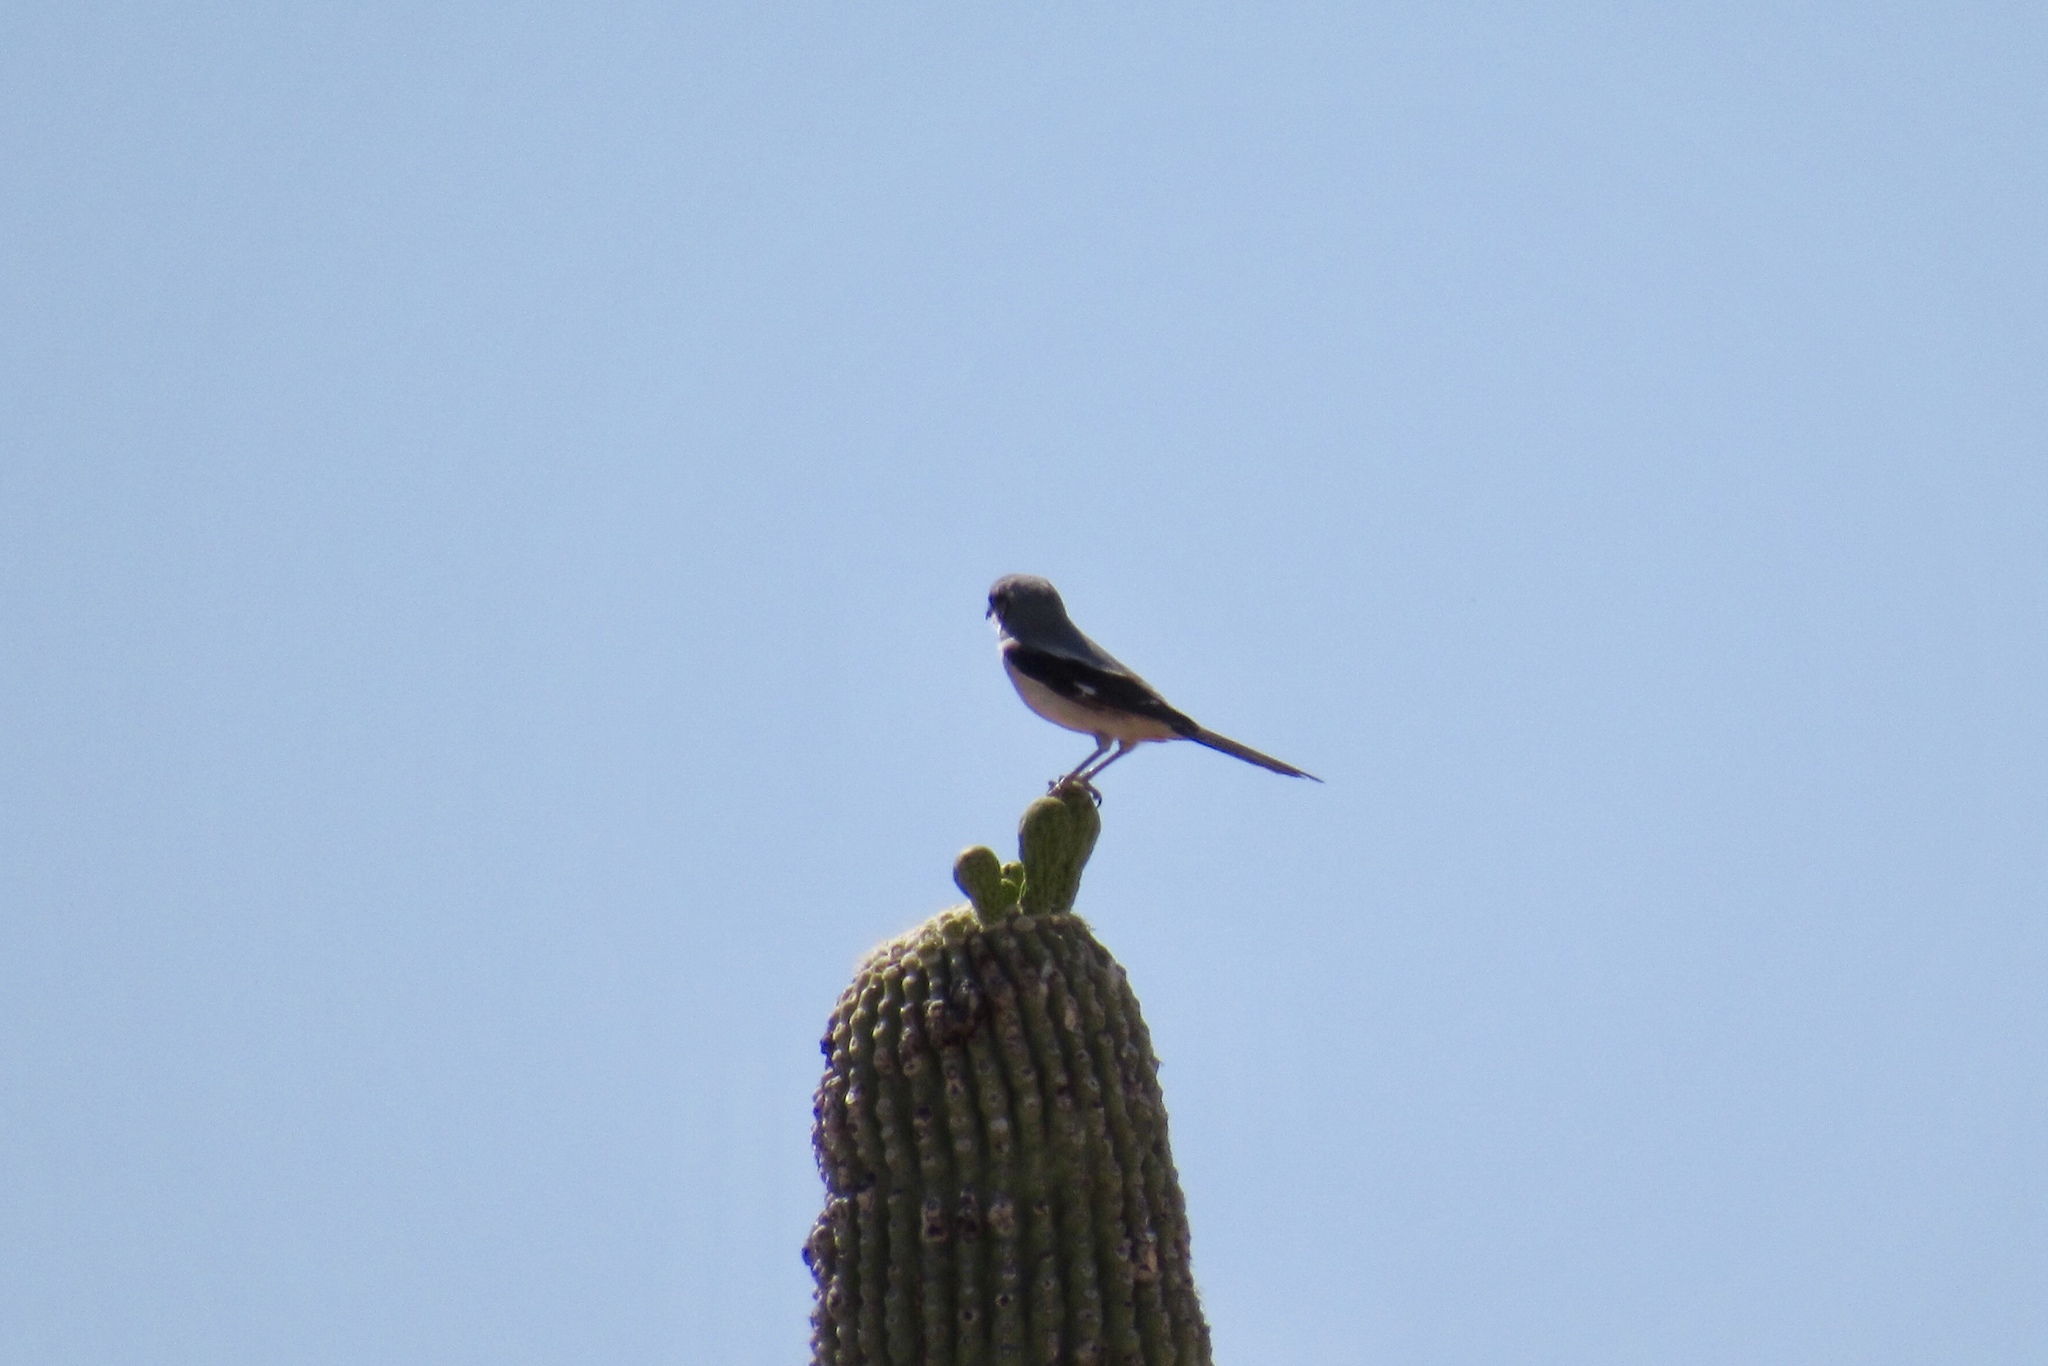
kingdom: Animalia
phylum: Chordata
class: Aves
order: Passeriformes
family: Laniidae
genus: Lanius
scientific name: Lanius ludovicianus
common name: Loggerhead shrike
